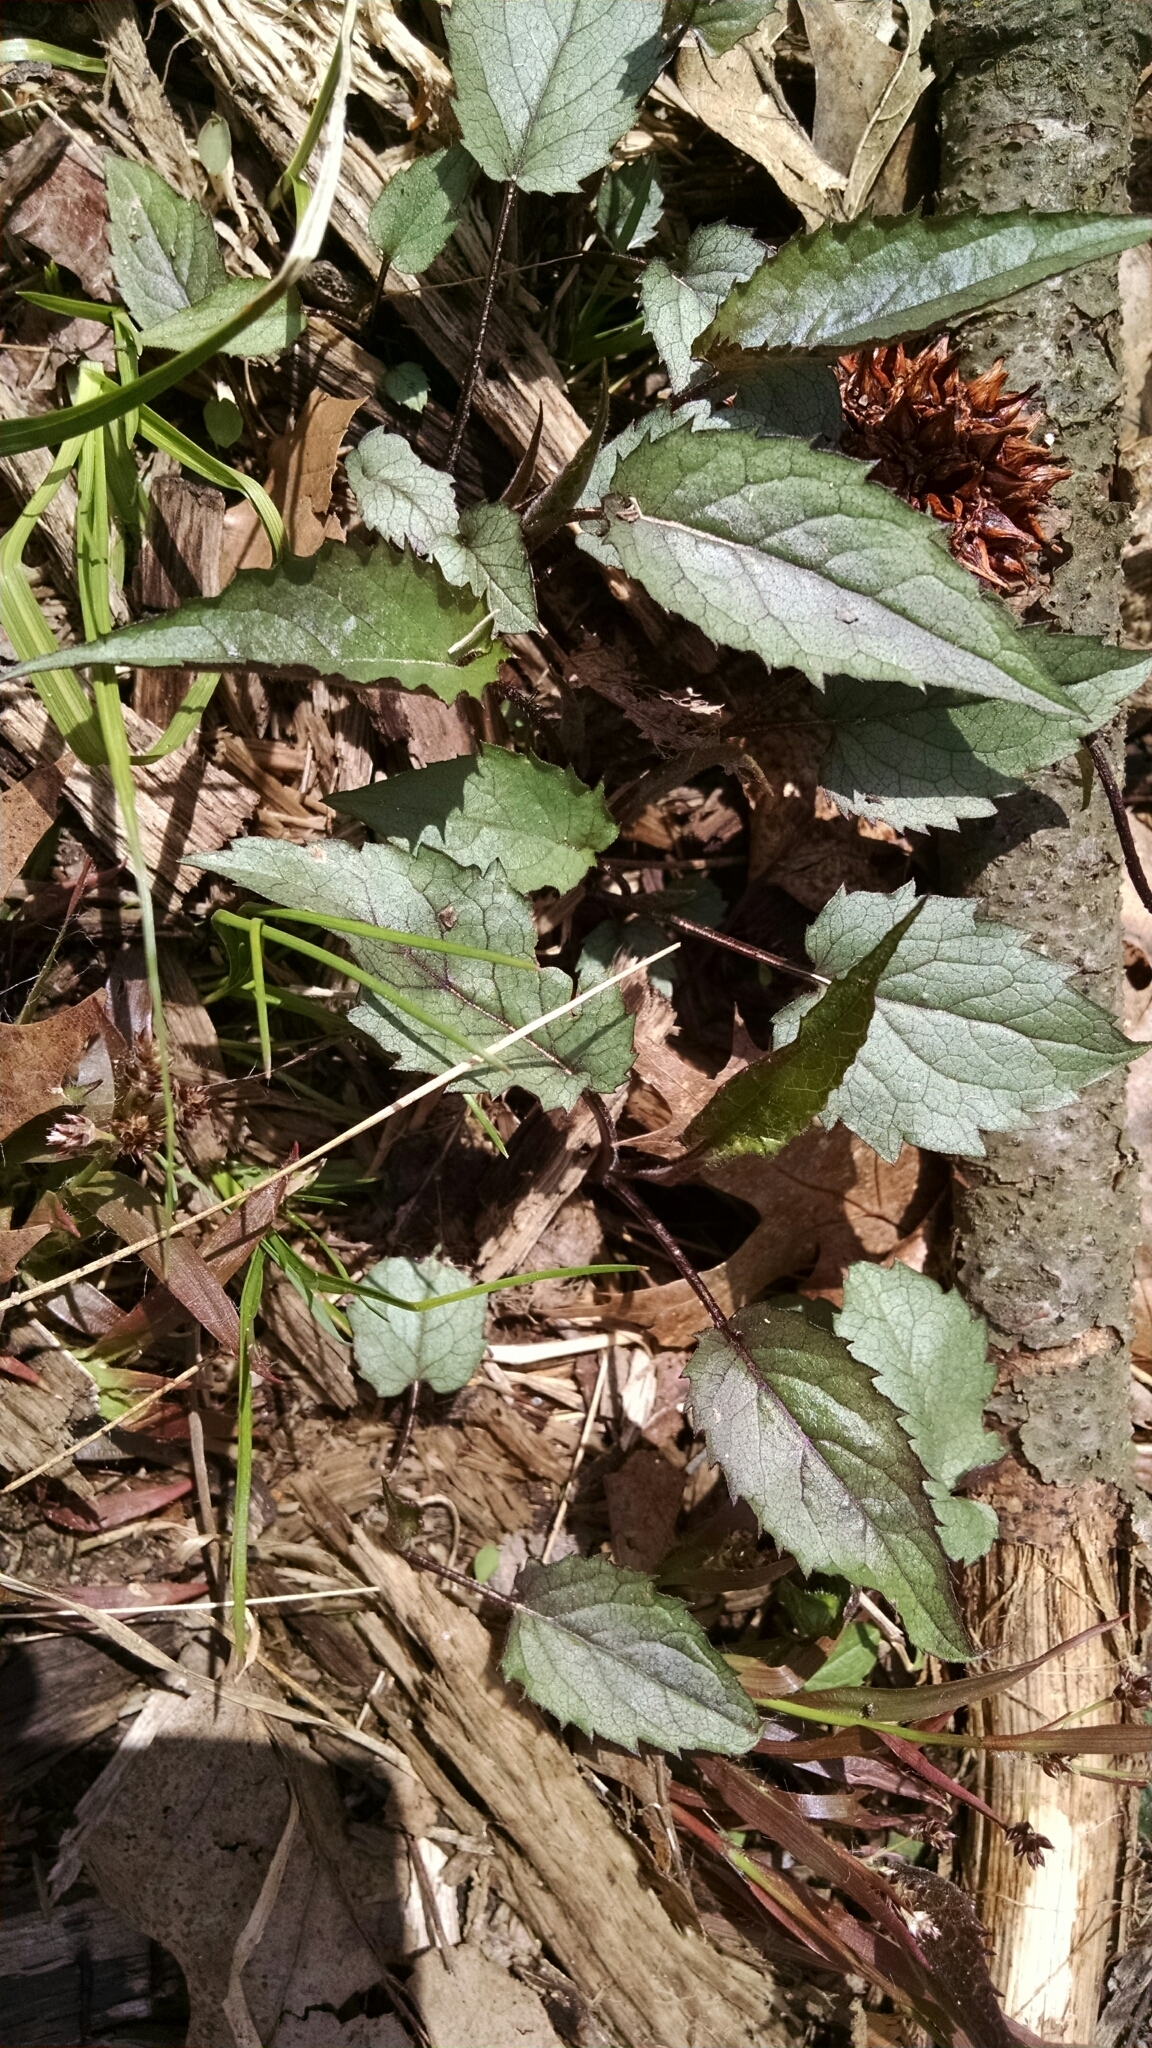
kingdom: Plantae
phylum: Tracheophyta
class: Magnoliopsida
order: Asterales
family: Asteraceae
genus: Eurybia
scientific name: Eurybia divaricata
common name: White wood aster
